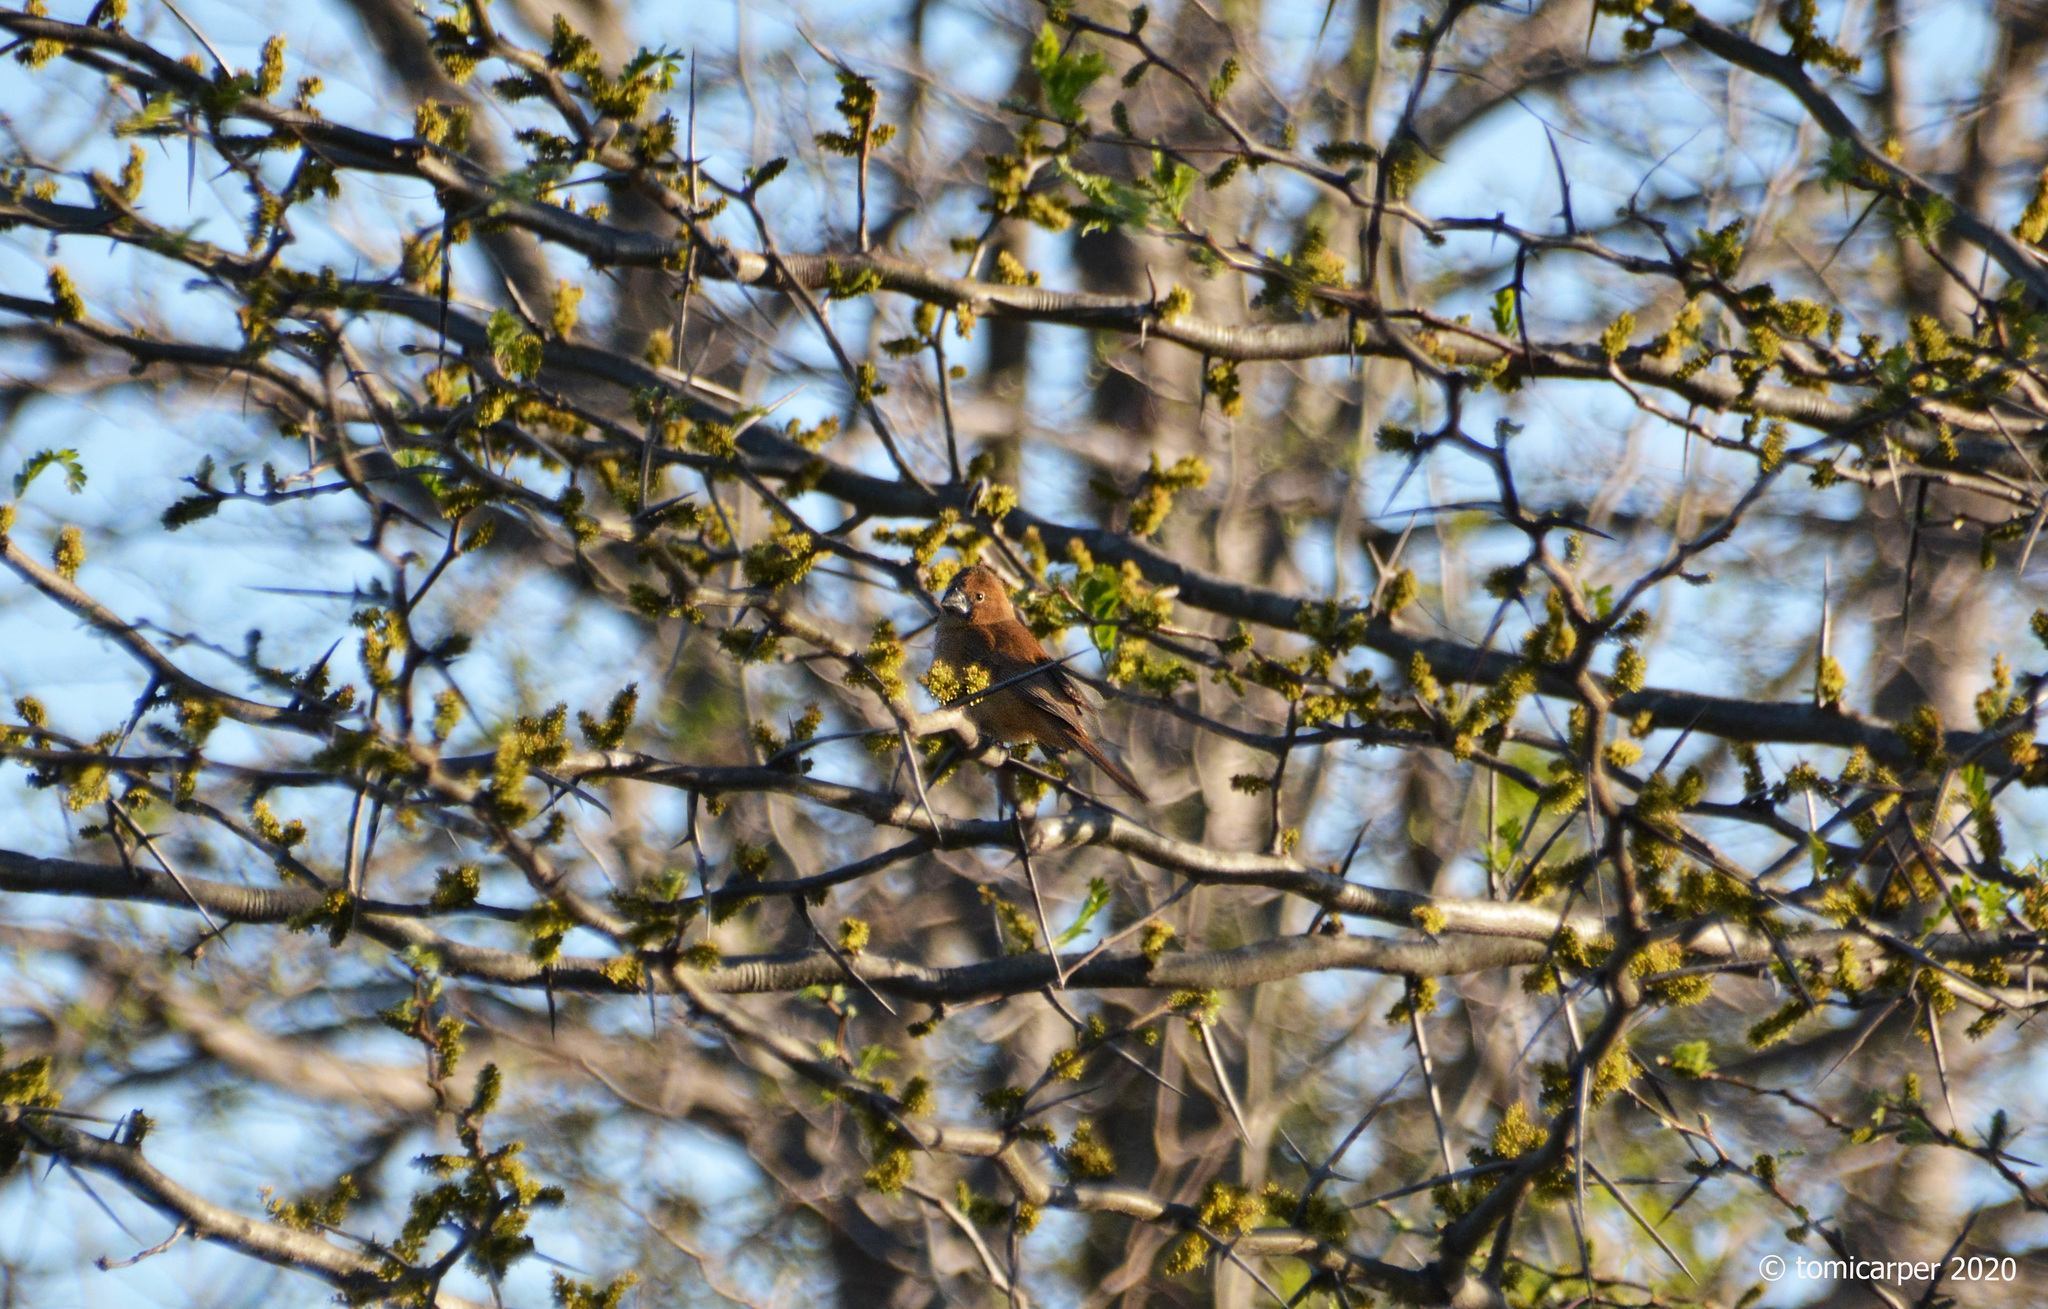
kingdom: Animalia
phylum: Chordata
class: Aves
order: Passeriformes
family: Cardinalidae
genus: Cyanoloxia
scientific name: Cyanoloxia brissonii
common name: Ultramarine grosbeak
